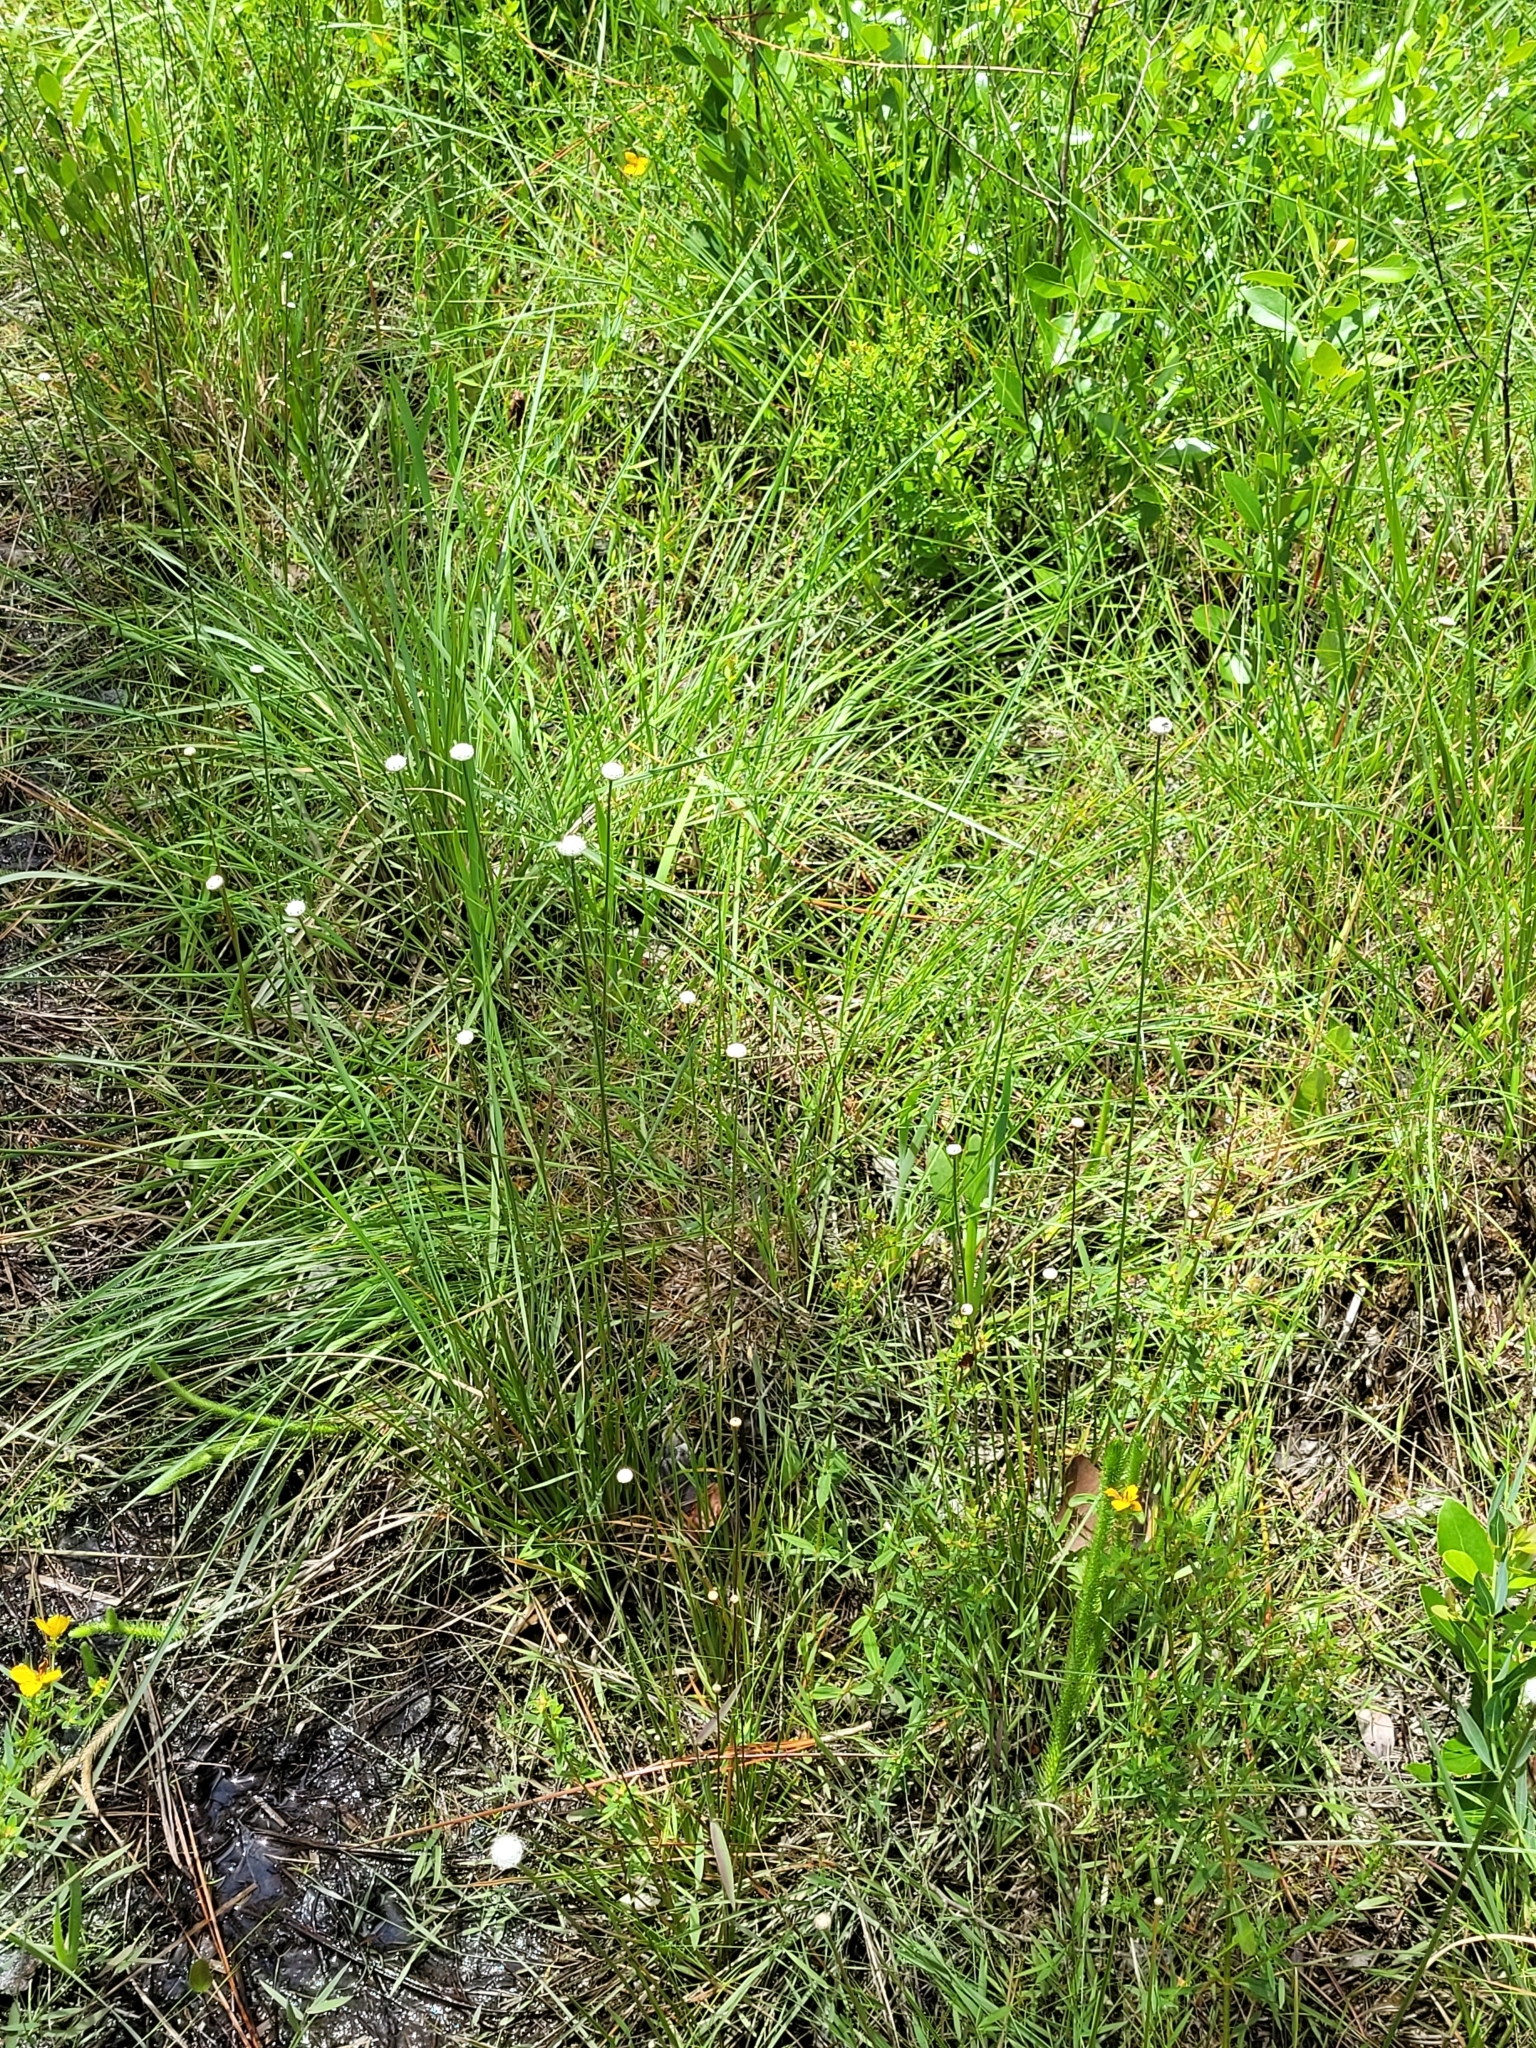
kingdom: Plantae
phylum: Tracheophyta
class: Liliopsida
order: Poales
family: Eriocaulaceae
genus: Eriocaulon
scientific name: Eriocaulon decangulare
